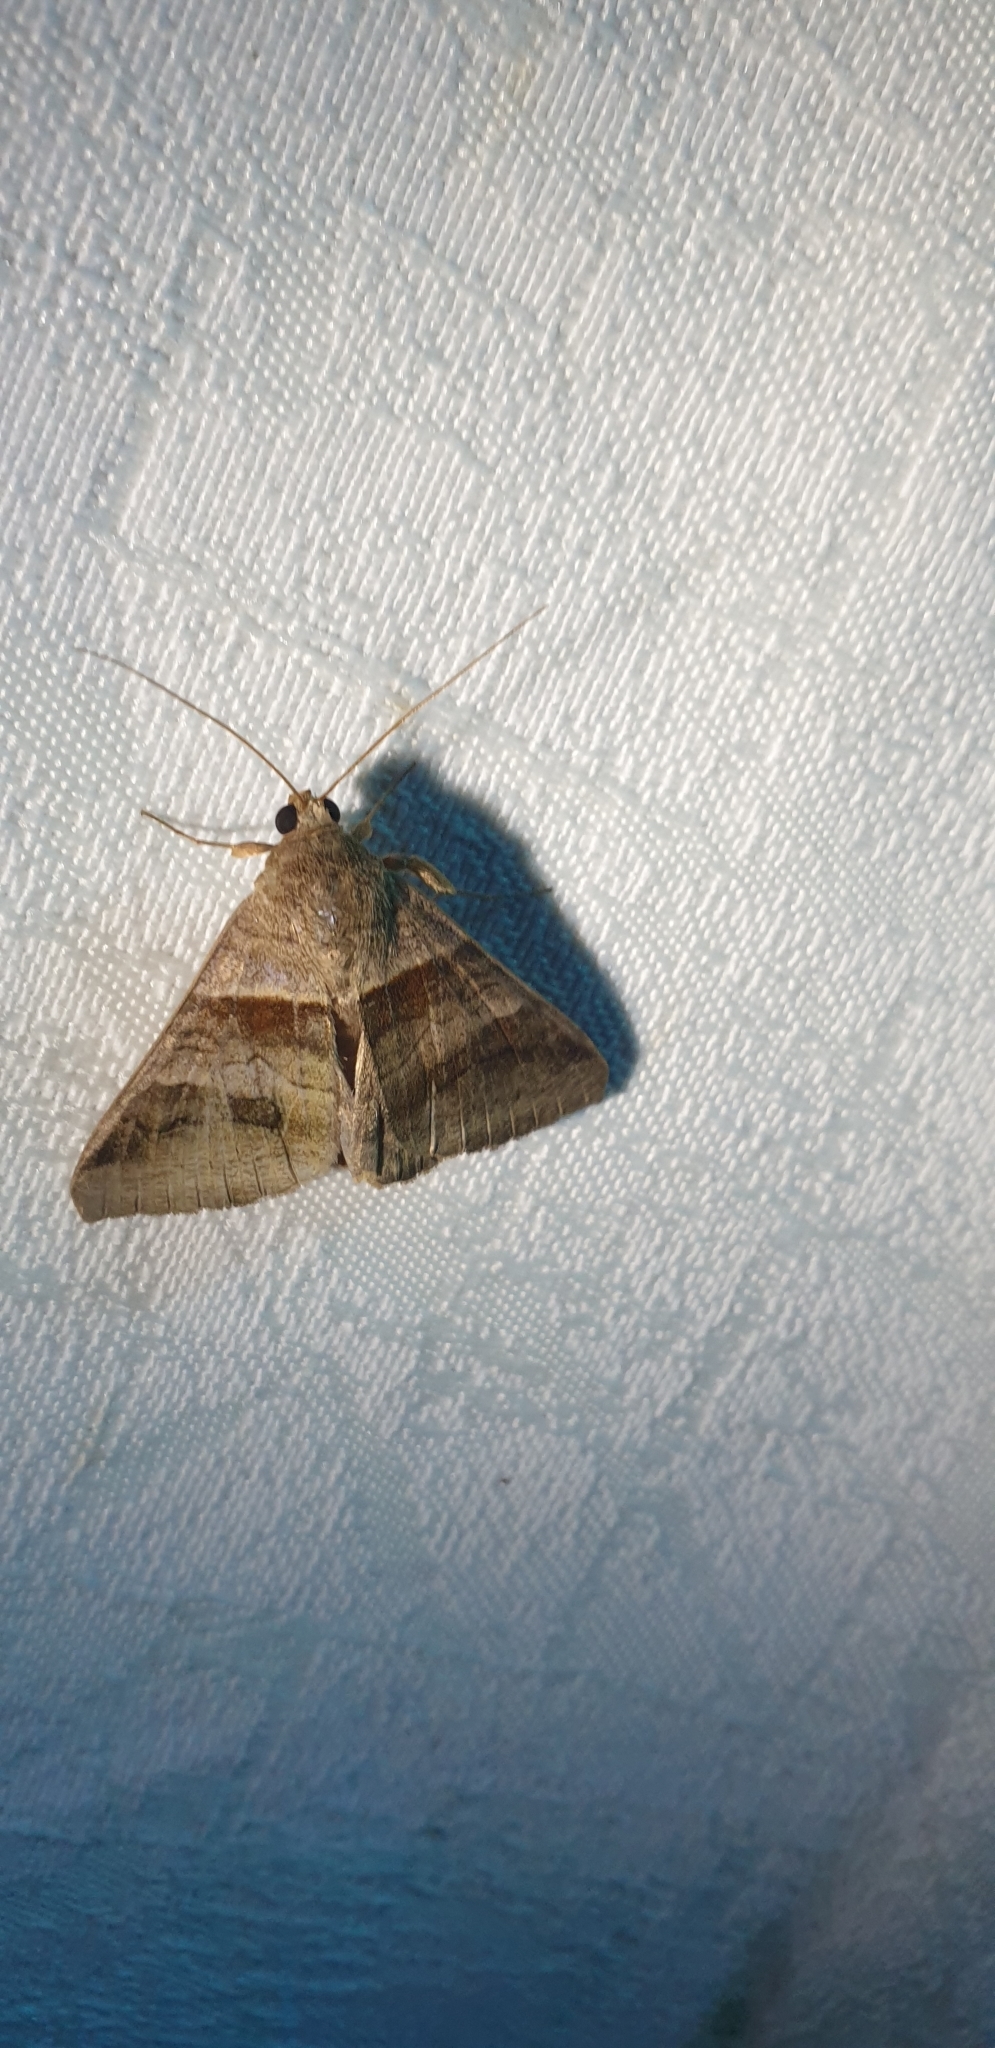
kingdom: Animalia
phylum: Arthropoda
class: Insecta
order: Lepidoptera
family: Erebidae
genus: Mocis
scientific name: Mocis trifasciata
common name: Triple-barred
